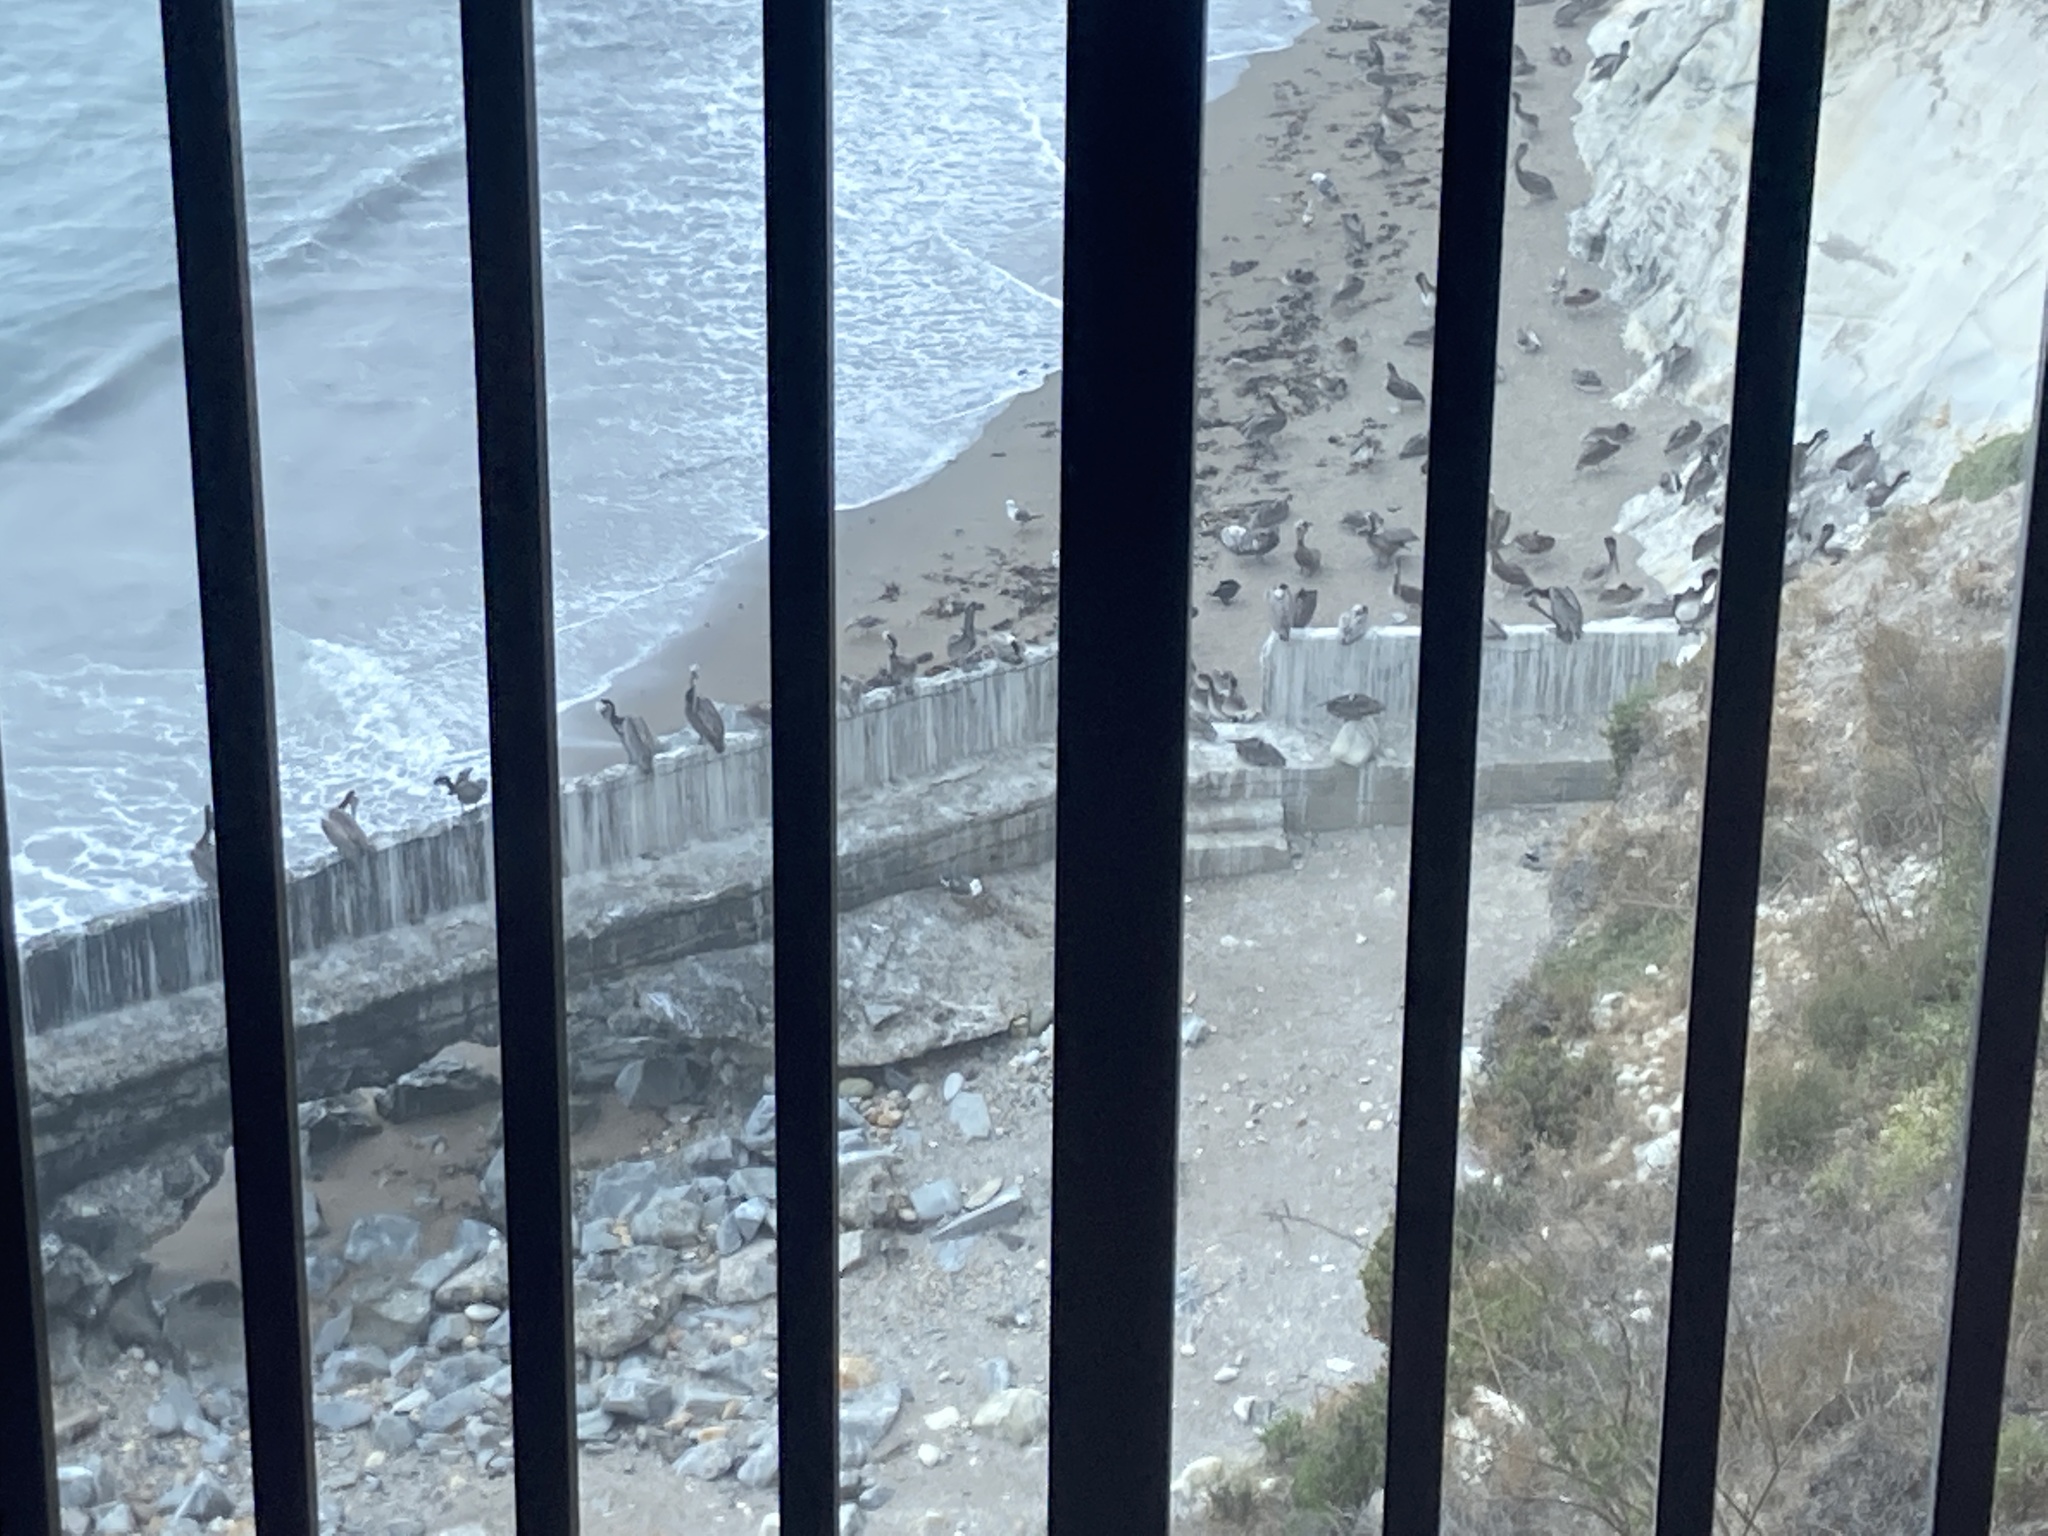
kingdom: Animalia
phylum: Chordata
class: Aves
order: Pelecaniformes
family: Pelecanidae
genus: Pelecanus
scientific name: Pelecanus occidentalis
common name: Brown pelican
